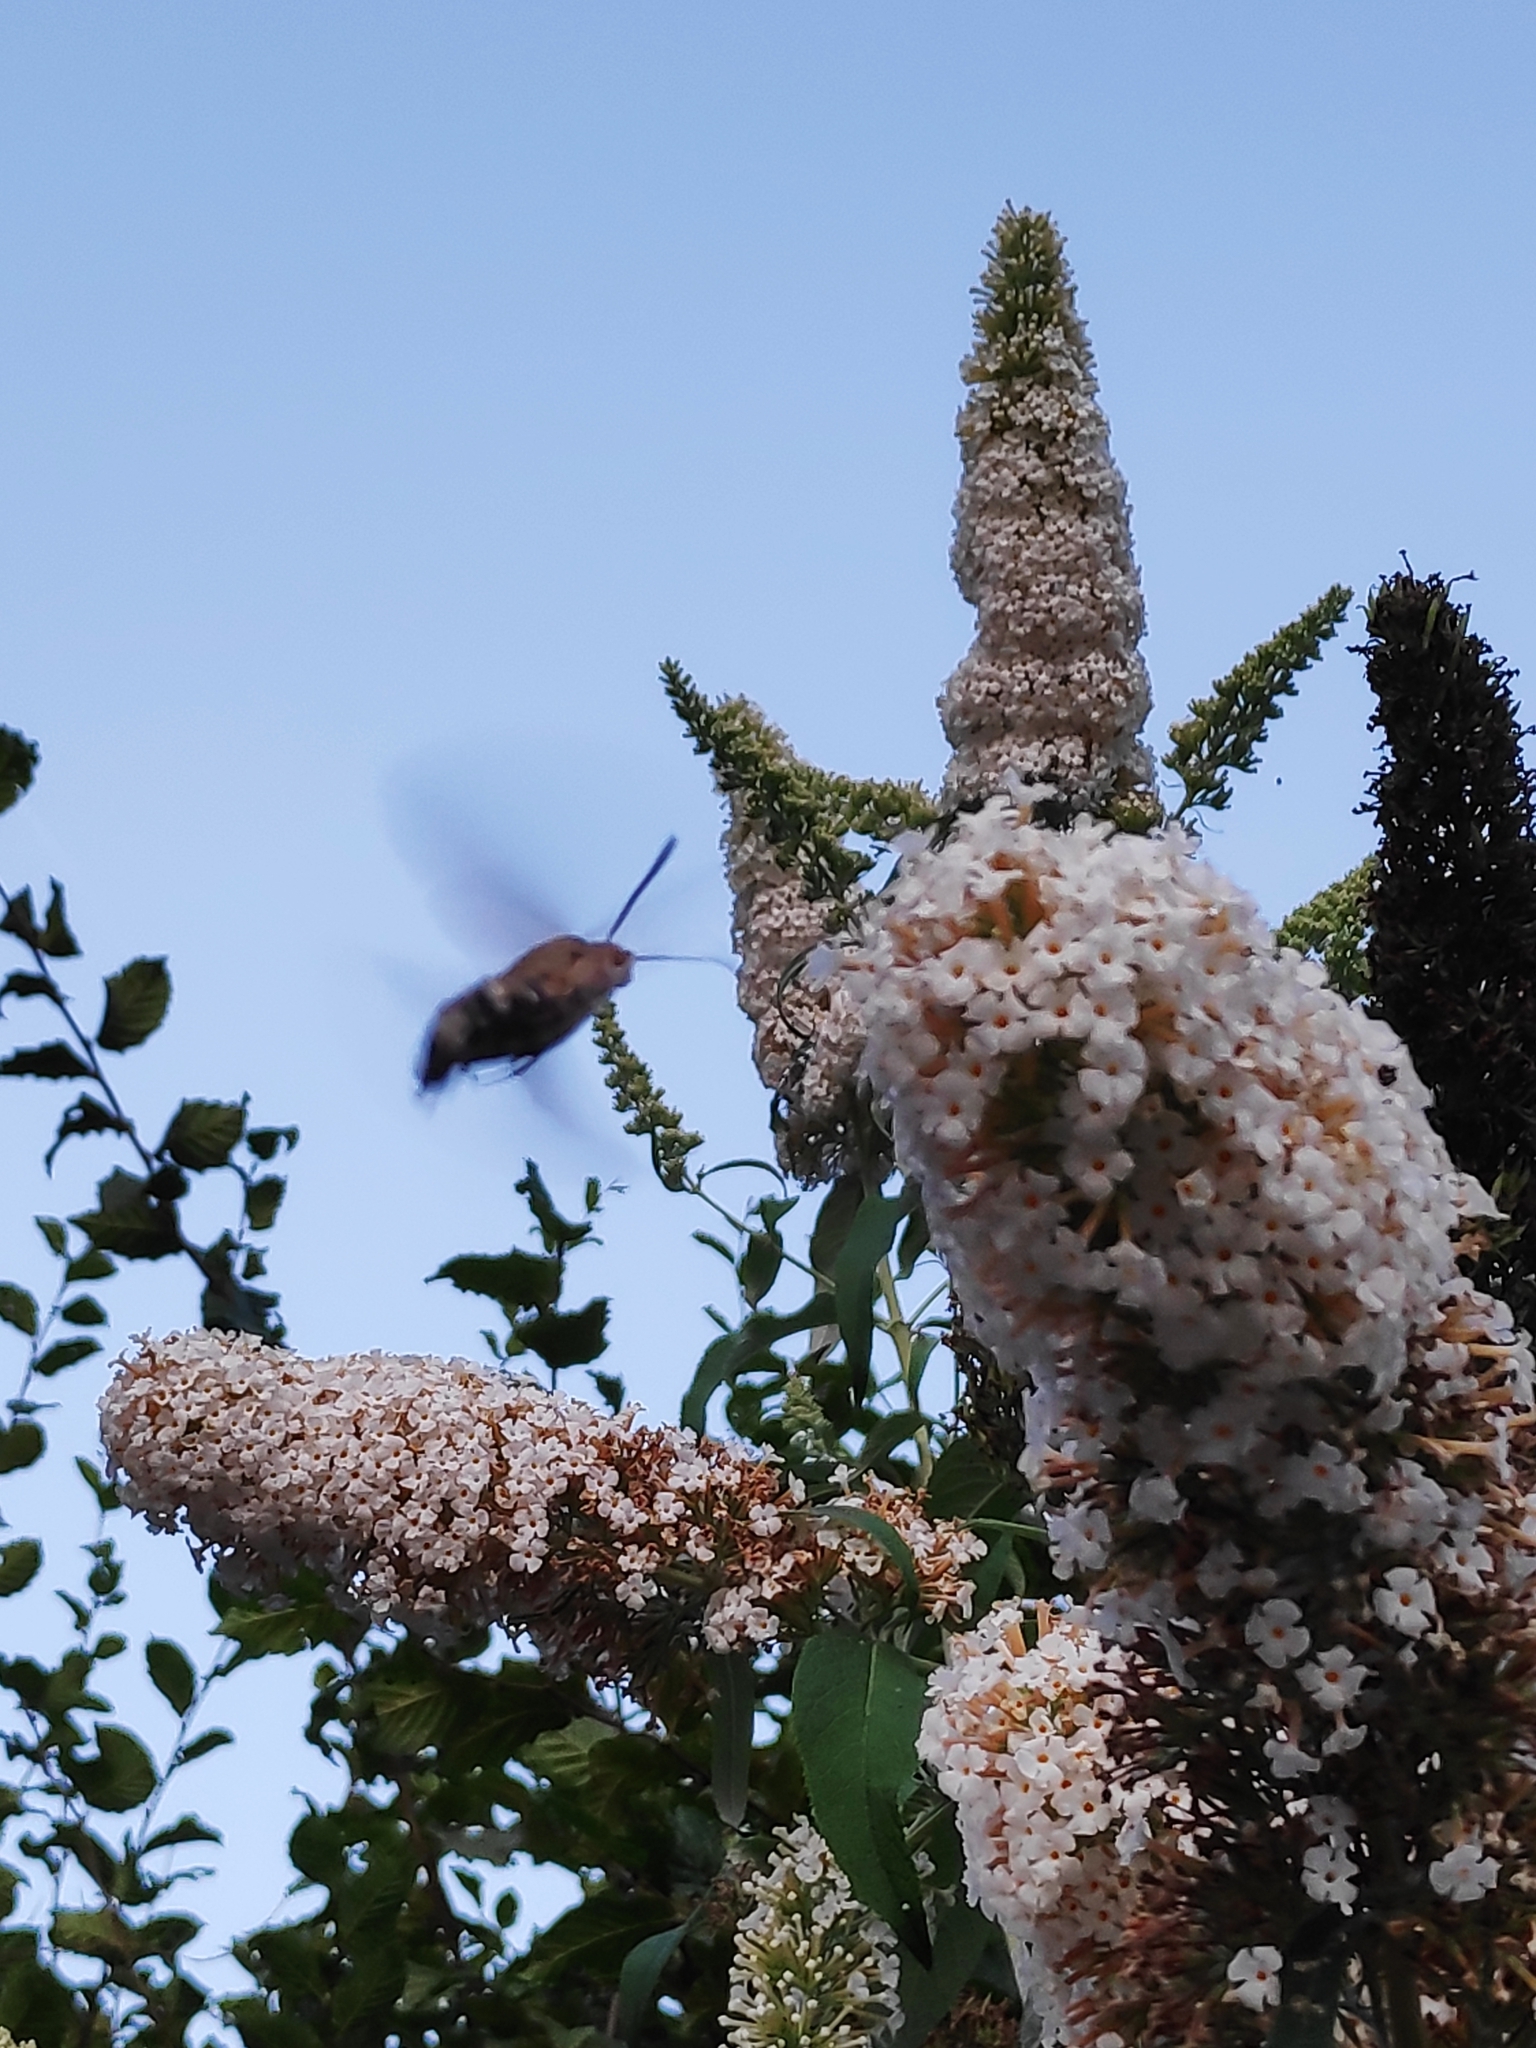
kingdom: Animalia
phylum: Arthropoda
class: Insecta
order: Lepidoptera
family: Sphingidae
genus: Macroglossum
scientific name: Macroglossum stellatarum
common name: Humming-bird hawk-moth
